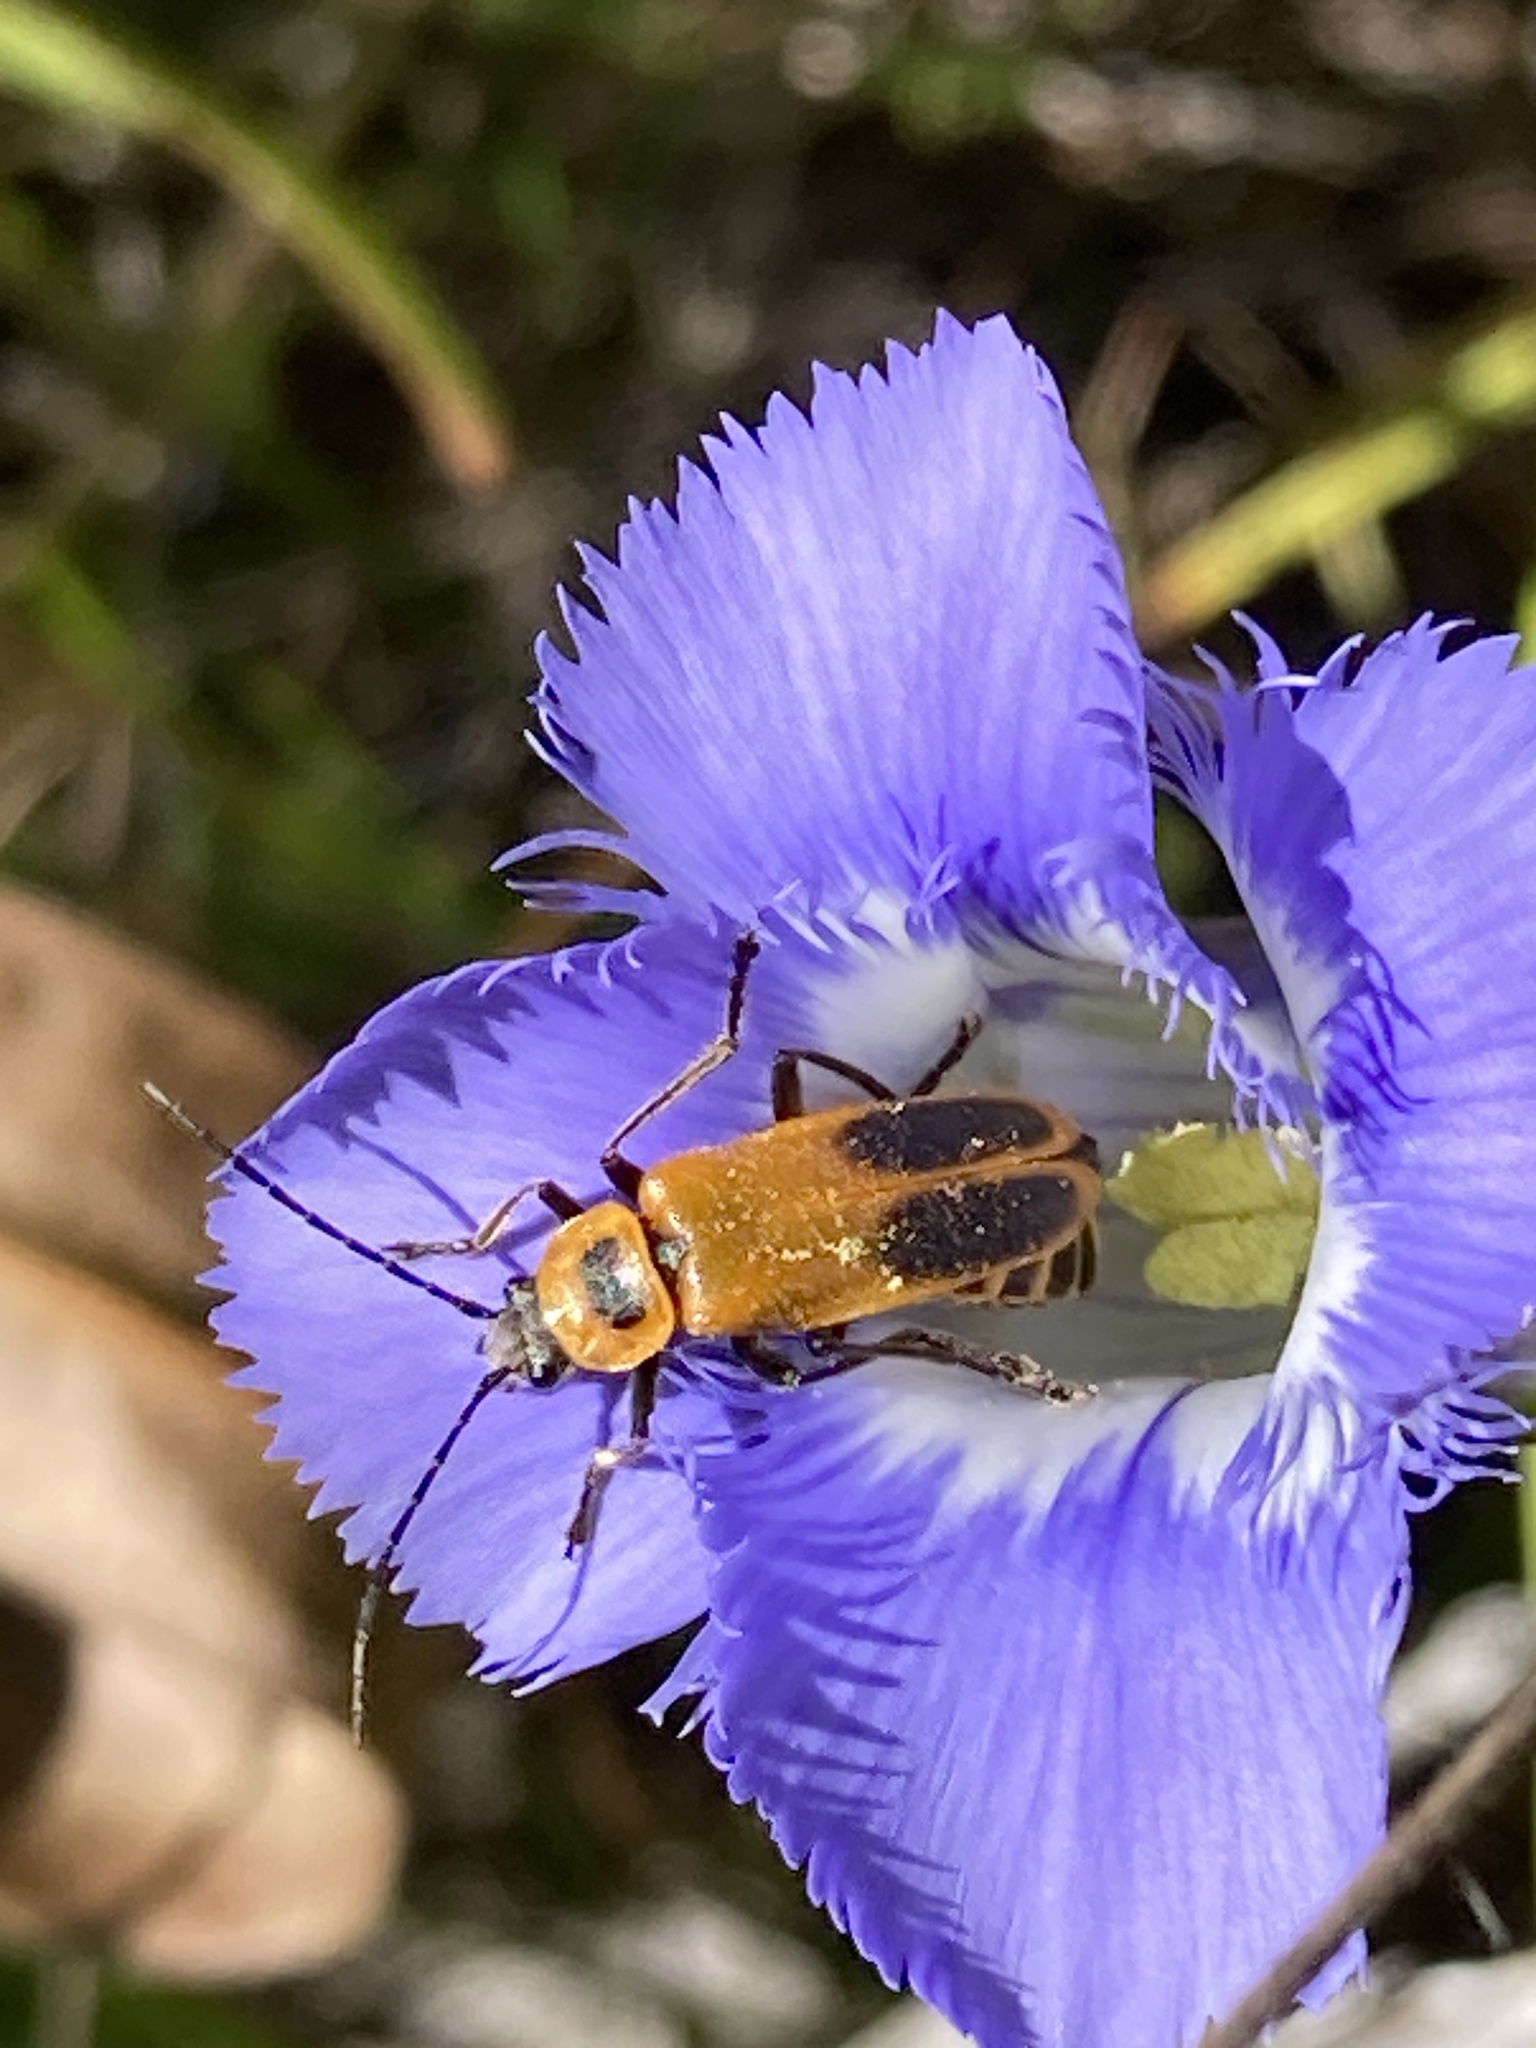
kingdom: Animalia
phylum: Arthropoda
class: Insecta
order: Coleoptera
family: Cantharidae
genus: Chauliognathus
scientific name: Chauliognathus pensylvanicus
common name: Goldenrod soldier beetle
